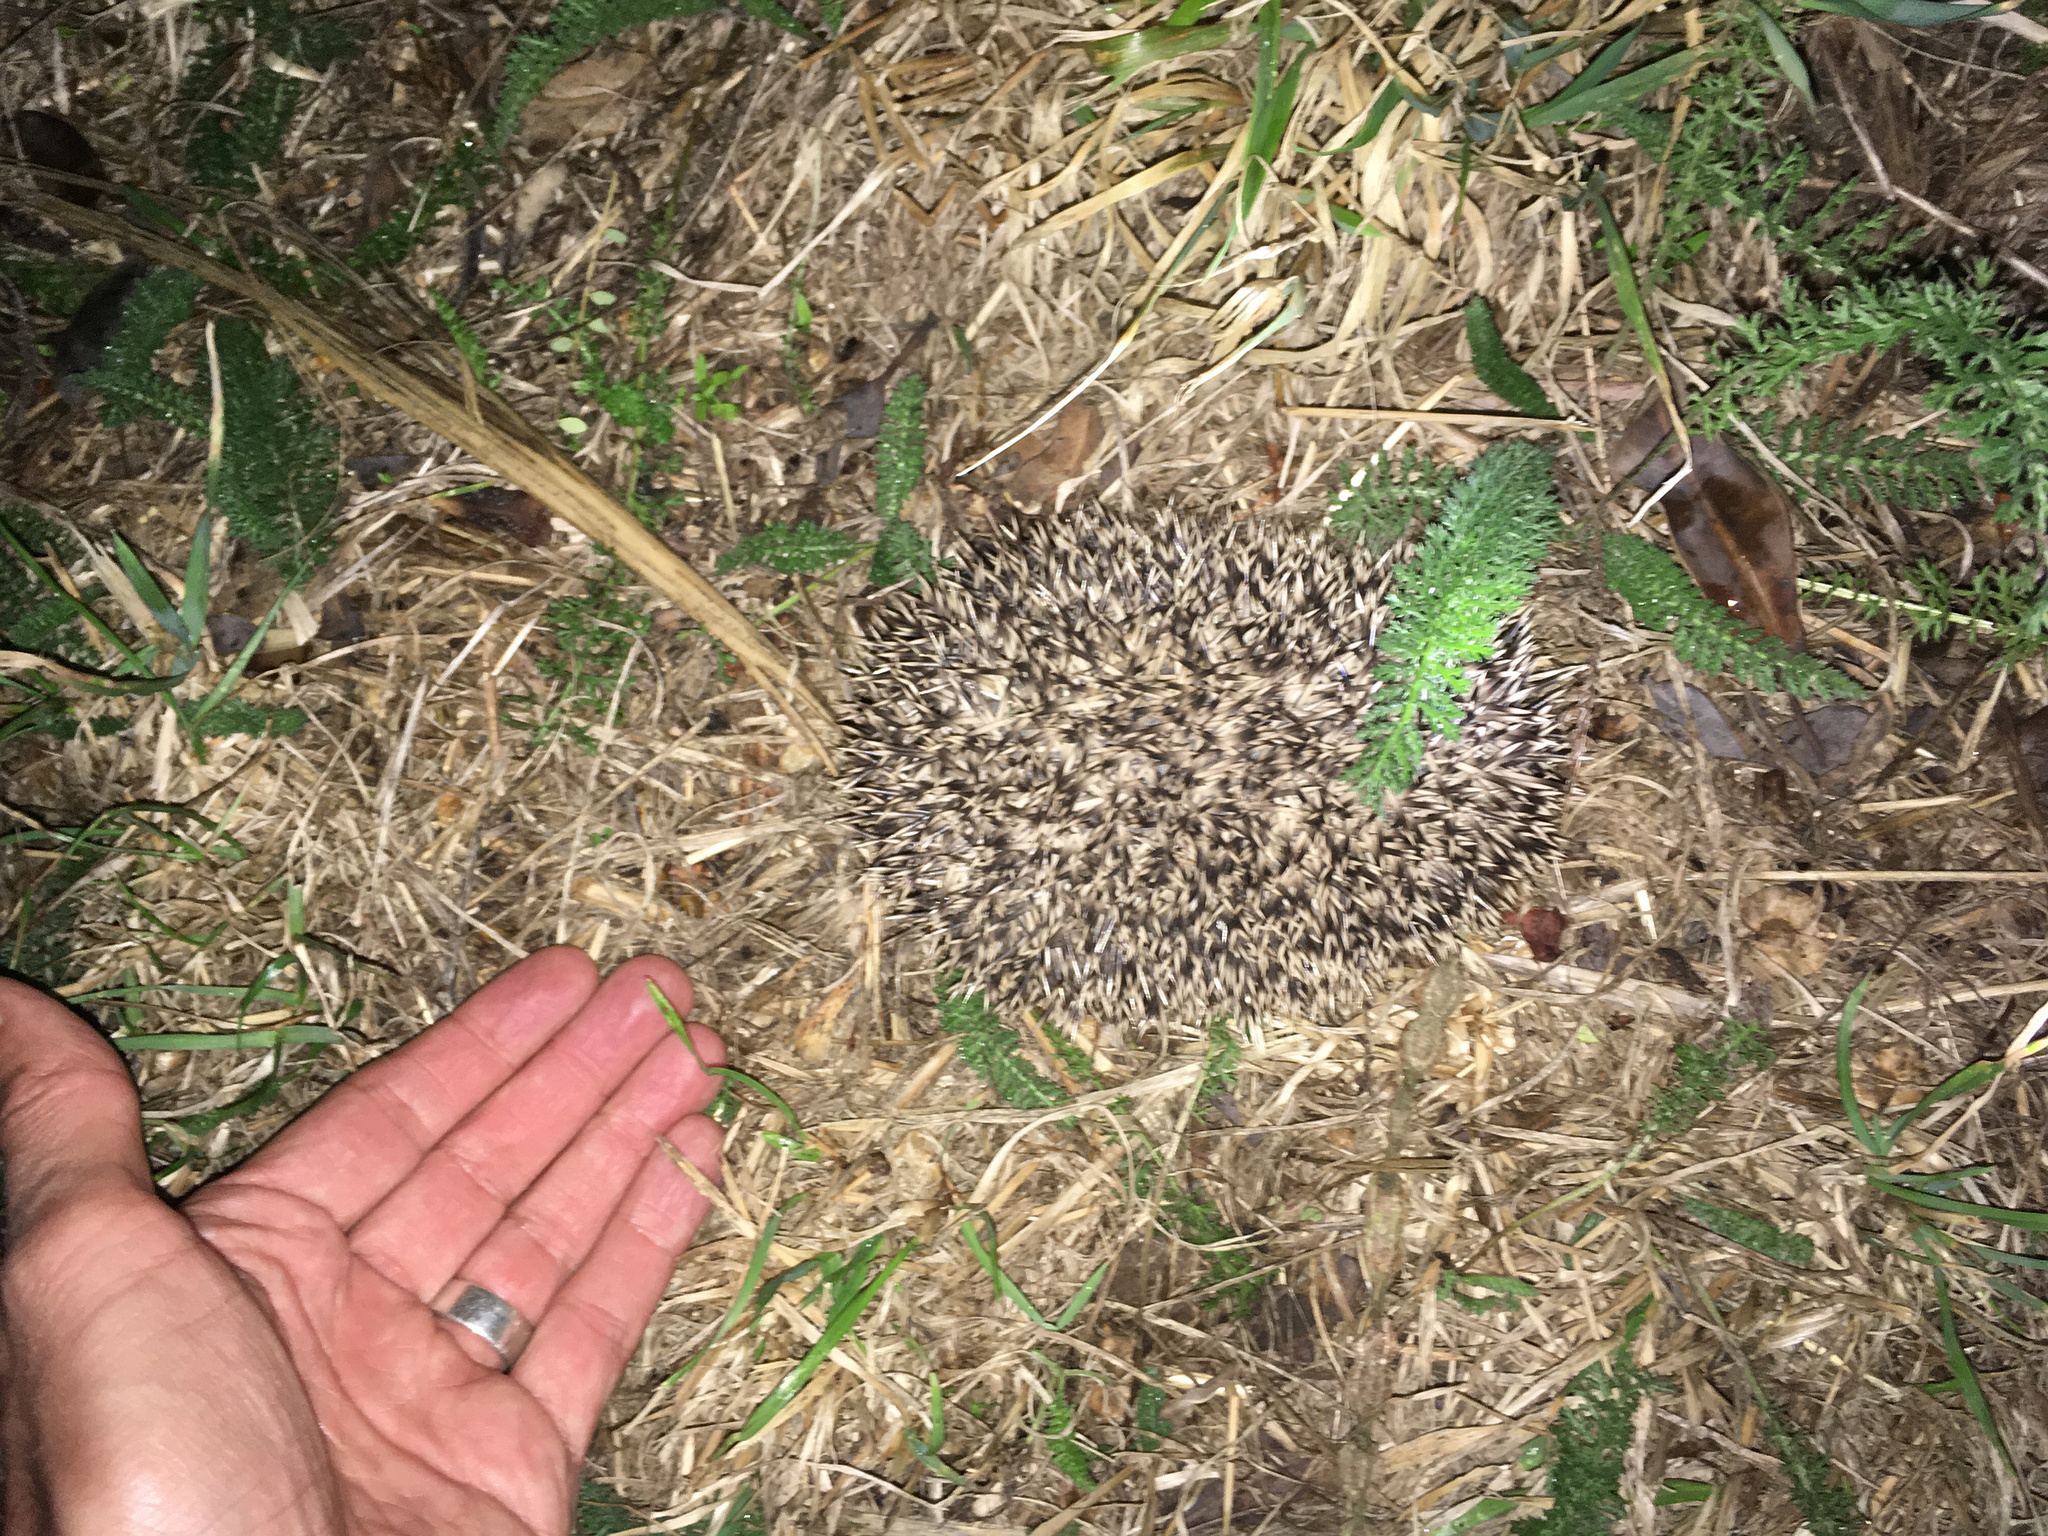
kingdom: Animalia
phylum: Chordata
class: Mammalia
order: Erinaceomorpha
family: Erinaceidae
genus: Erinaceus
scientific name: Erinaceus europaeus
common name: West european hedgehog
